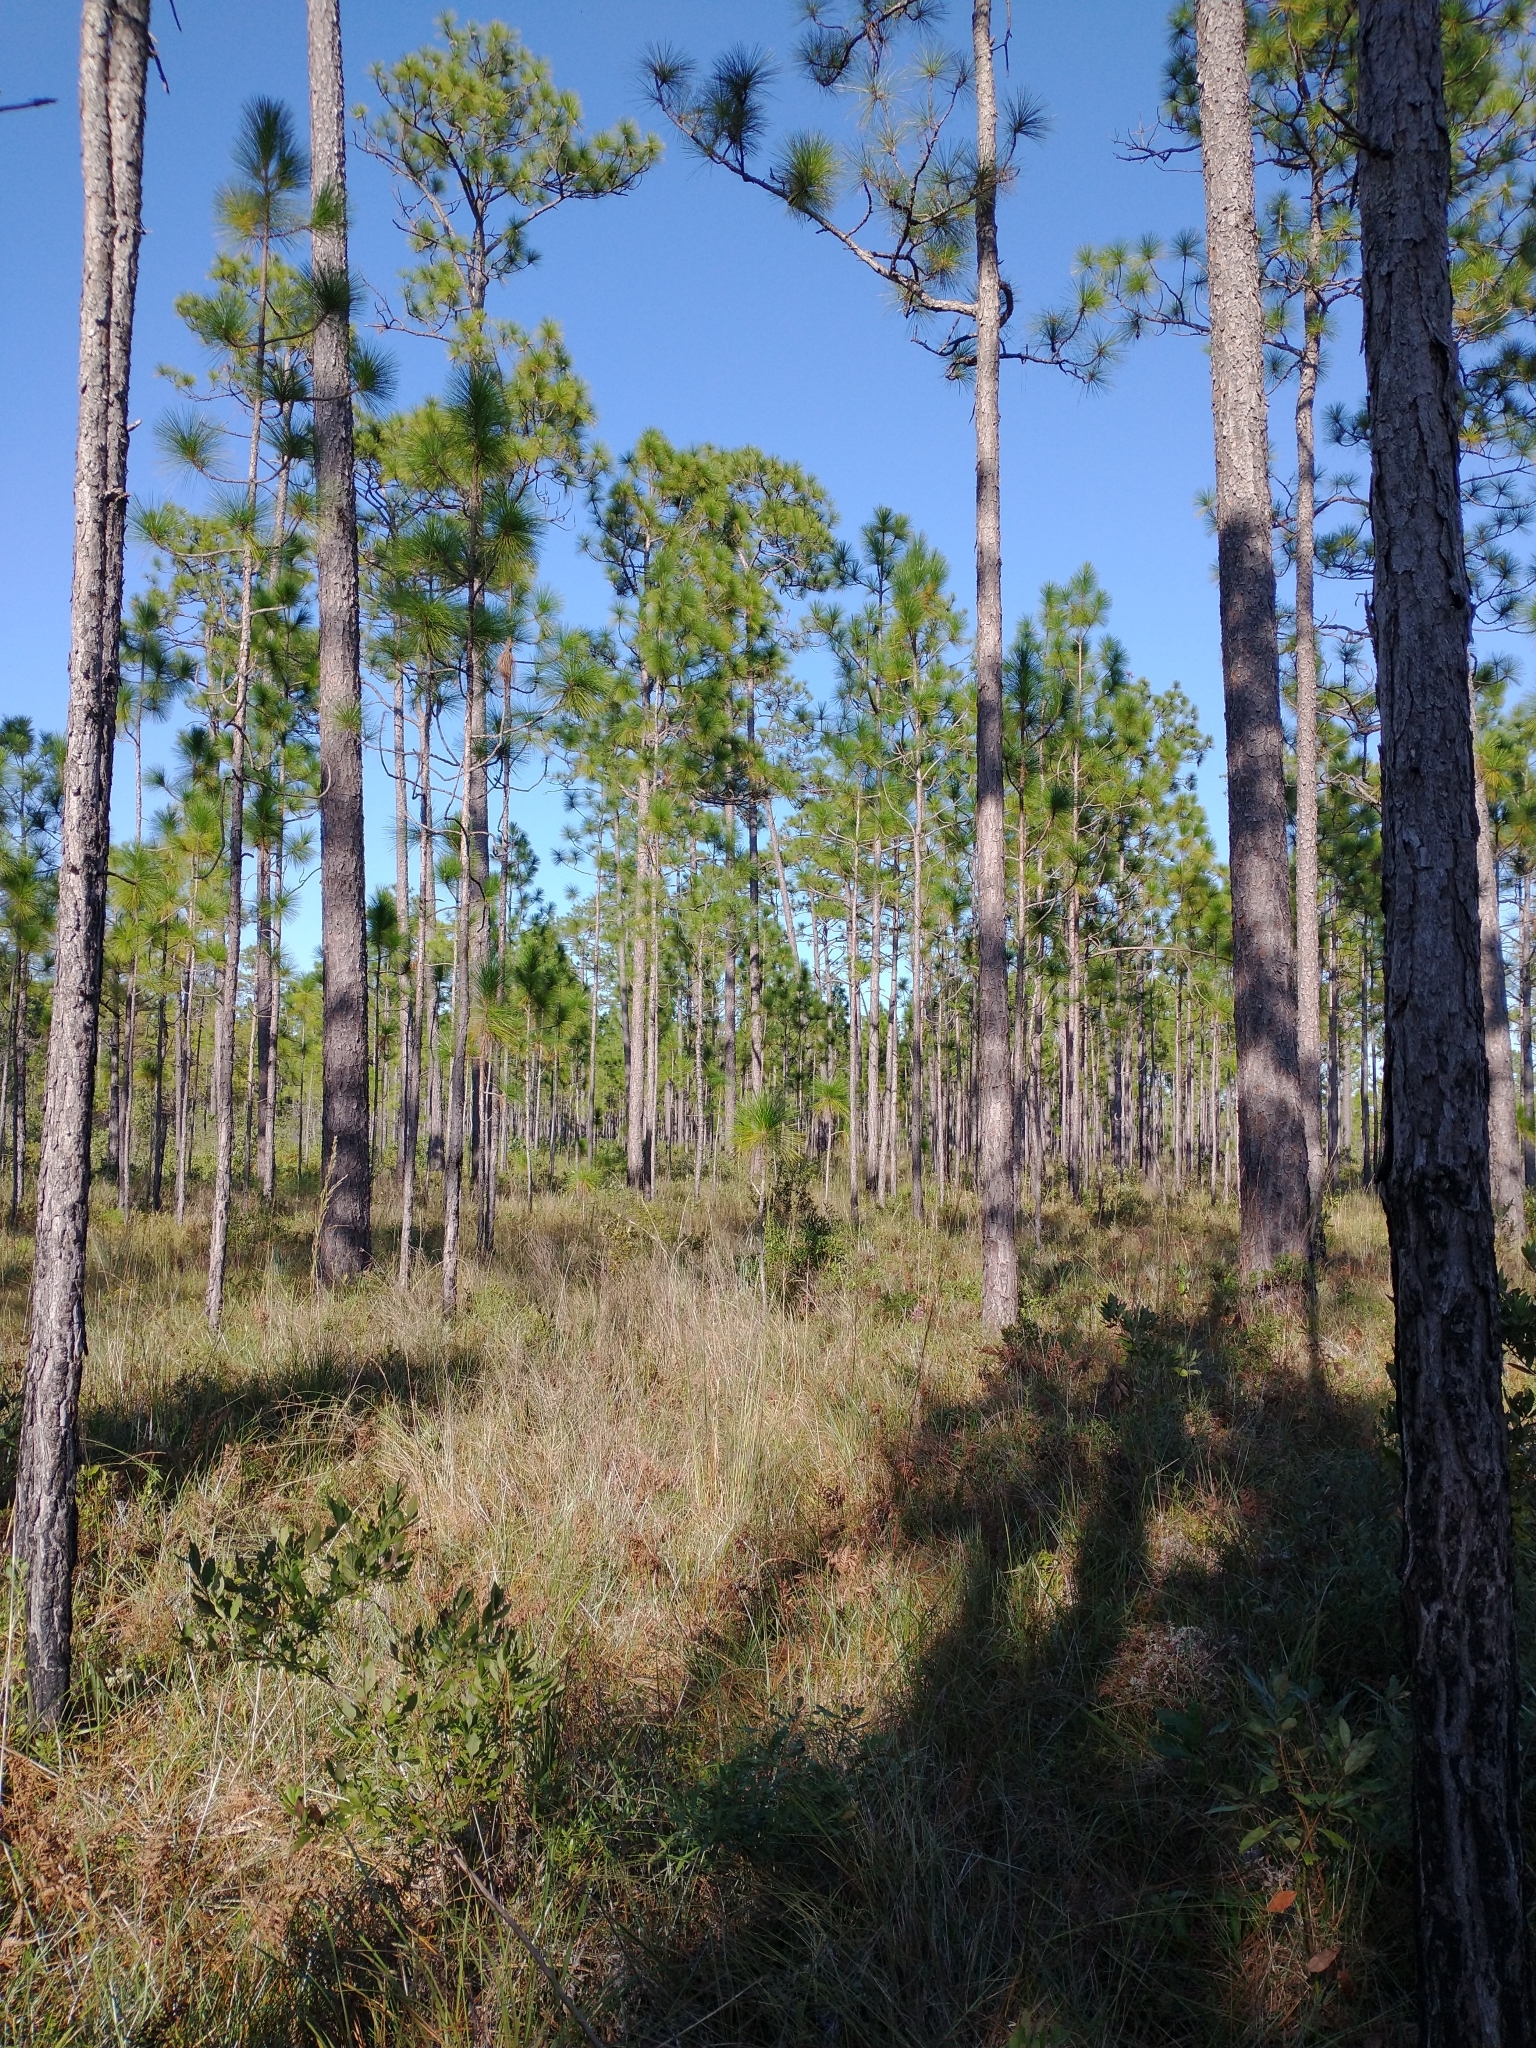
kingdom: Plantae
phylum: Tracheophyta
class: Pinopsida
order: Pinales
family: Pinaceae
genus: Pinus
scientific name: Pinus palustris
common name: Longleaf pine
